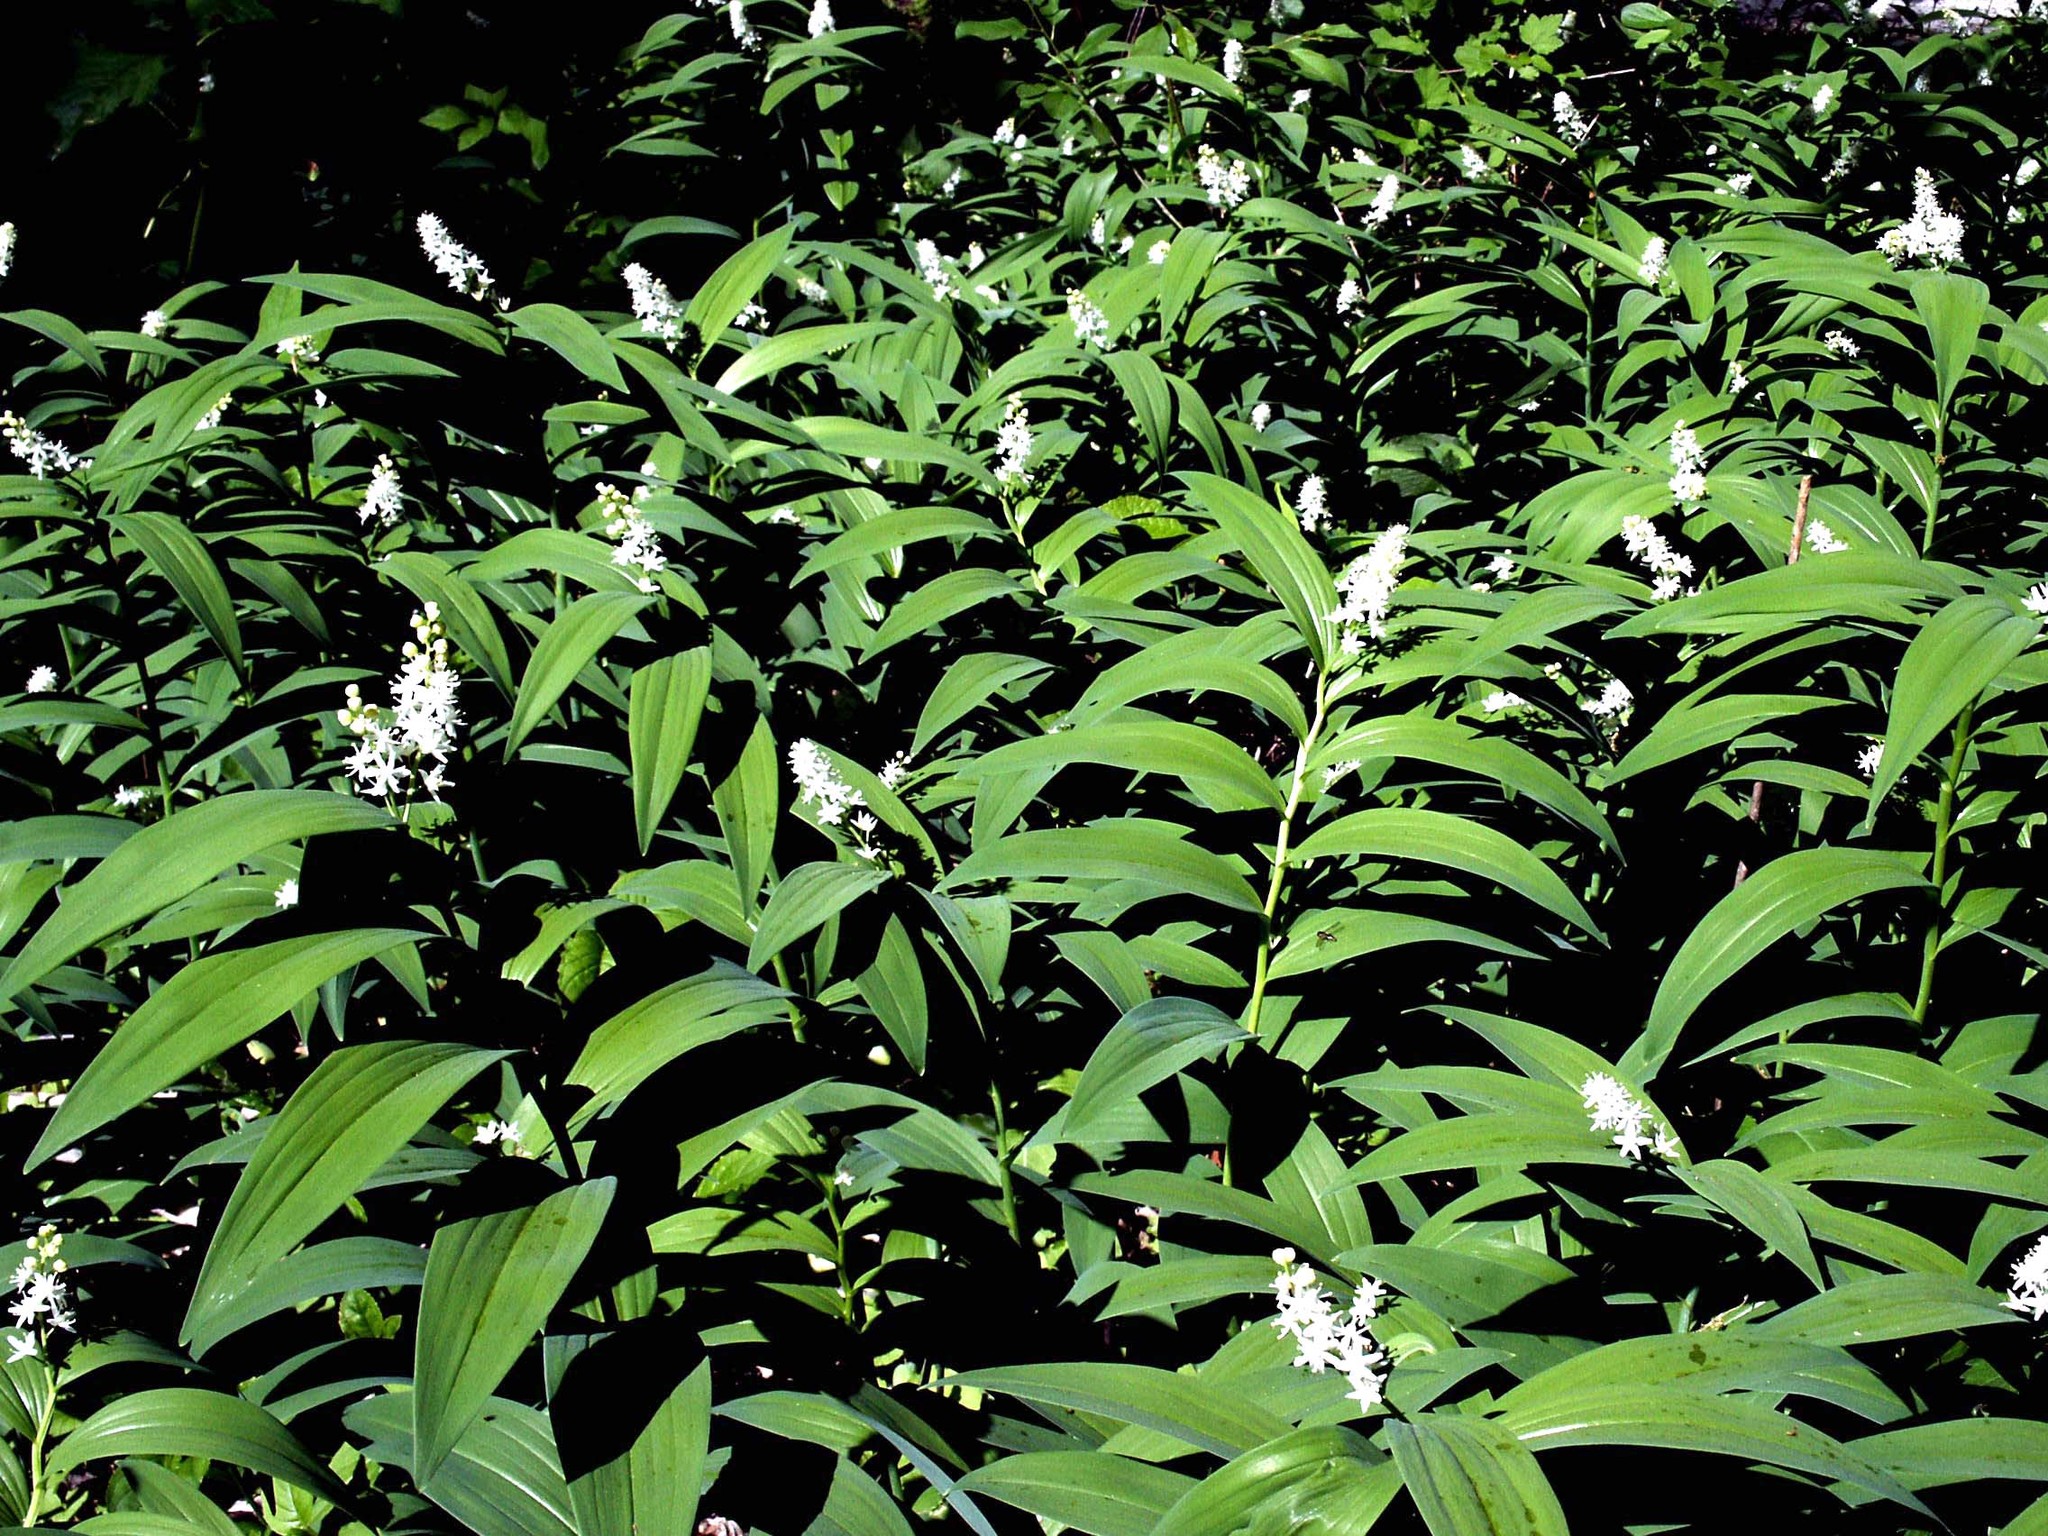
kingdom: Plantae
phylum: Tracheophyta
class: Liliopsida
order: Asparagales
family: Asparagaceae
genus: Maianthemum
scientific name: Maianthemum stellatum
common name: Little false solomon's seal
